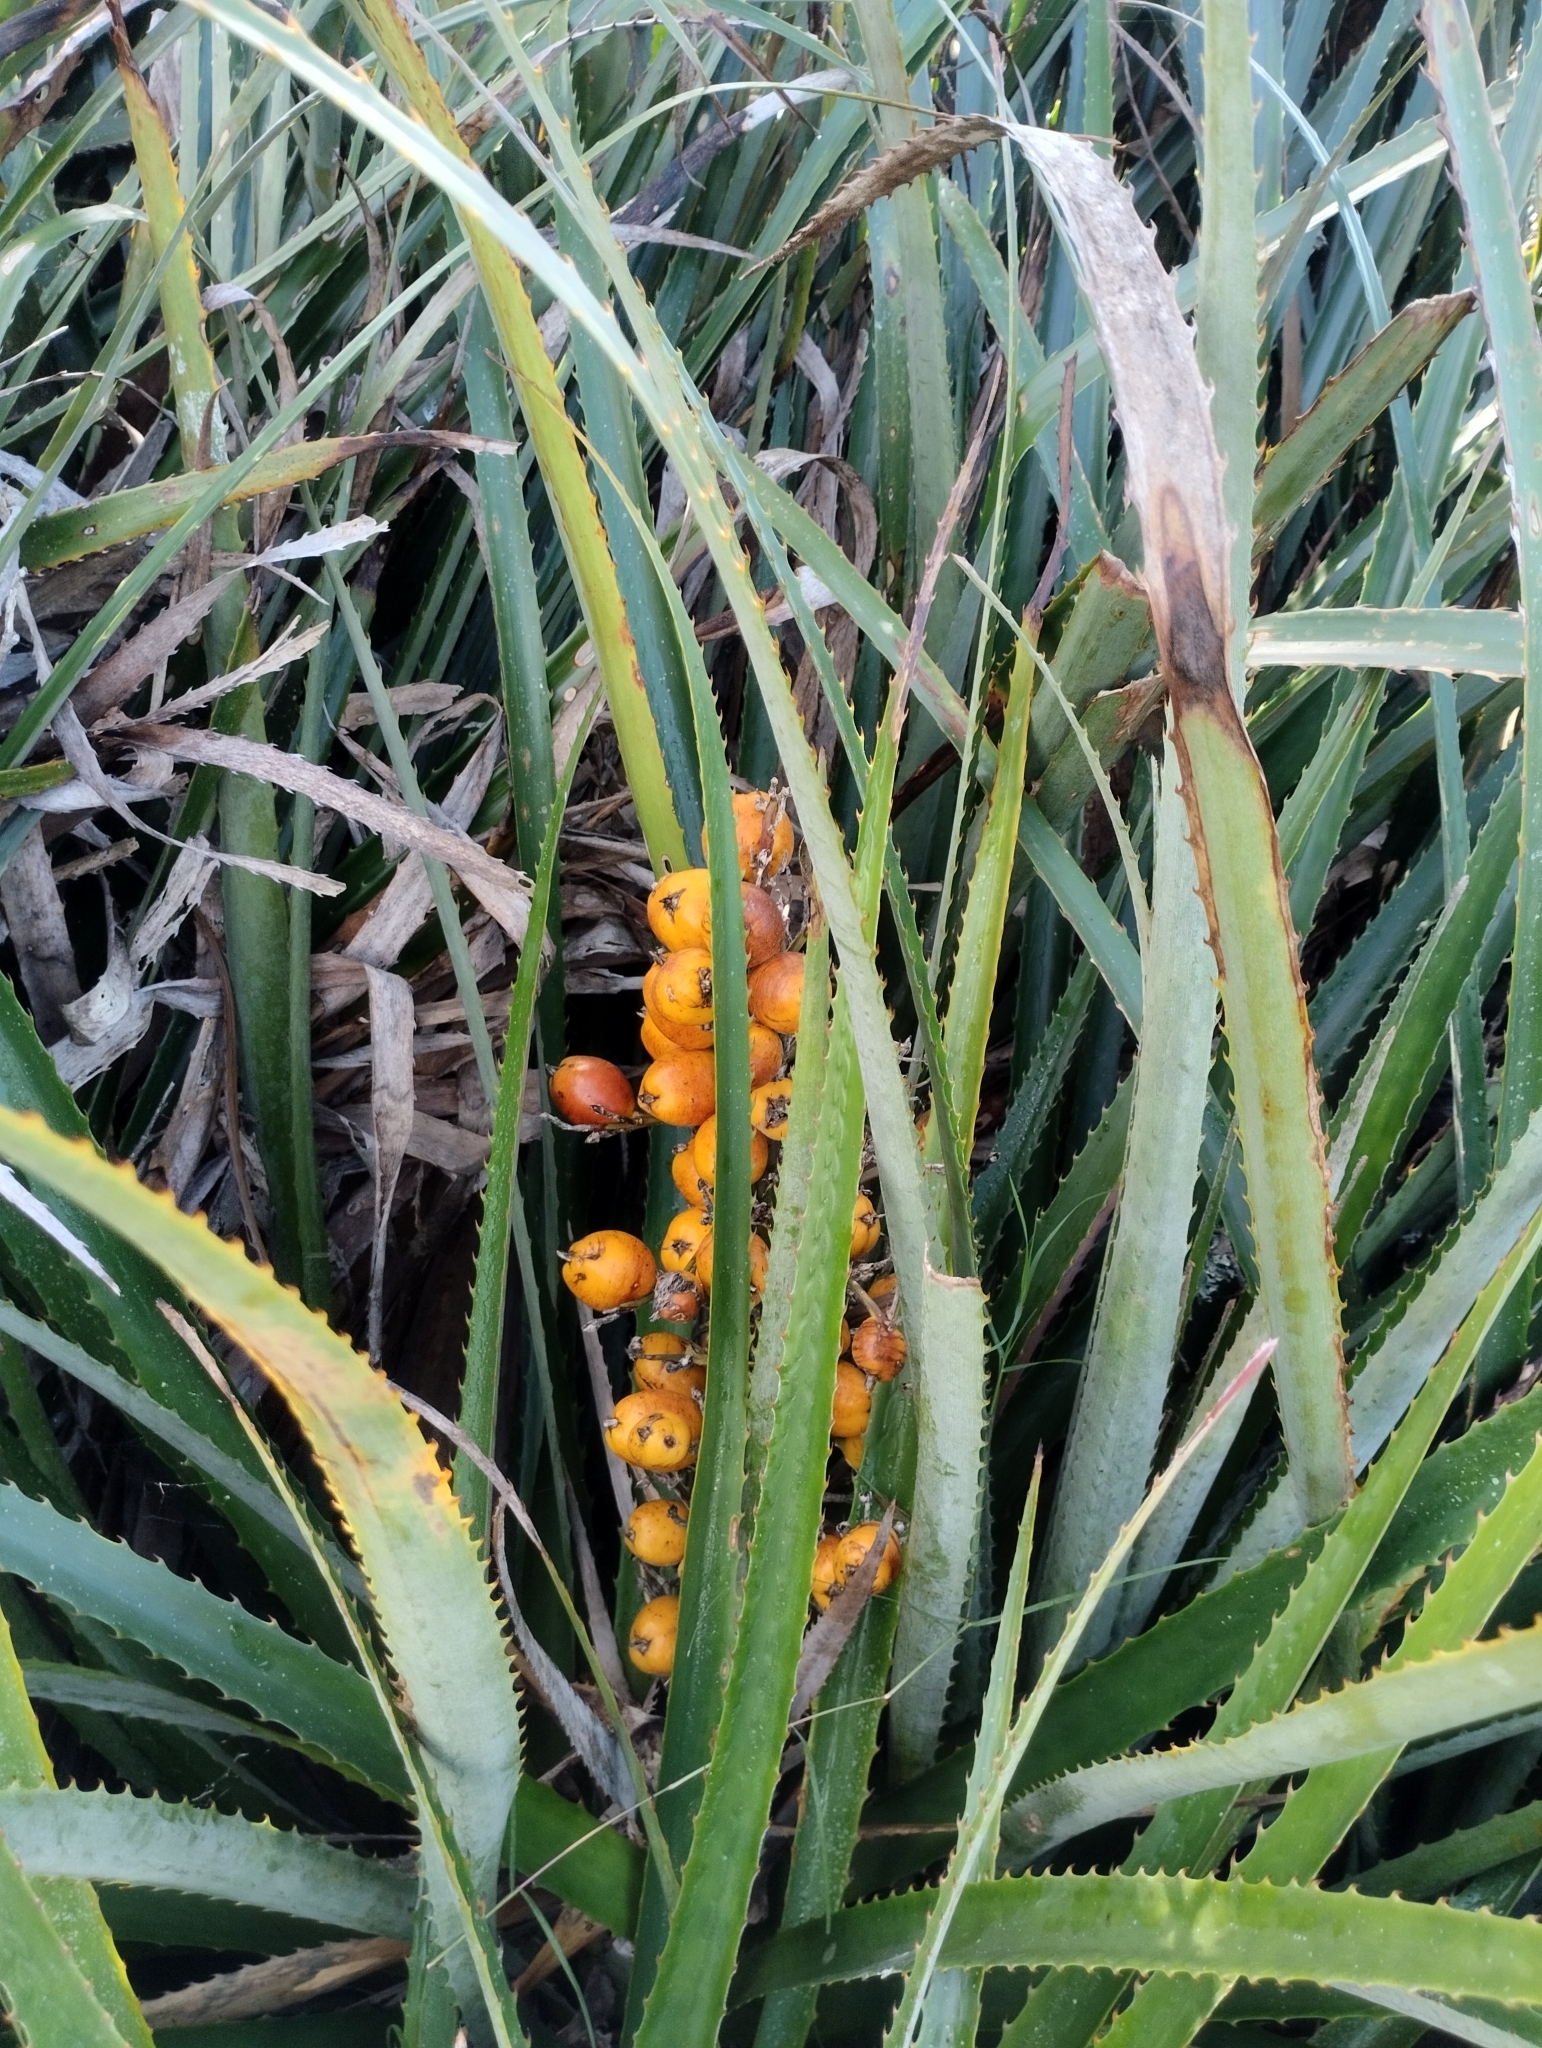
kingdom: Plantae
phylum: Tracheophyta
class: Liliopsida
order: Poales
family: Bromeliaceae
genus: Bromelia
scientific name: Bromelia antiacantha
